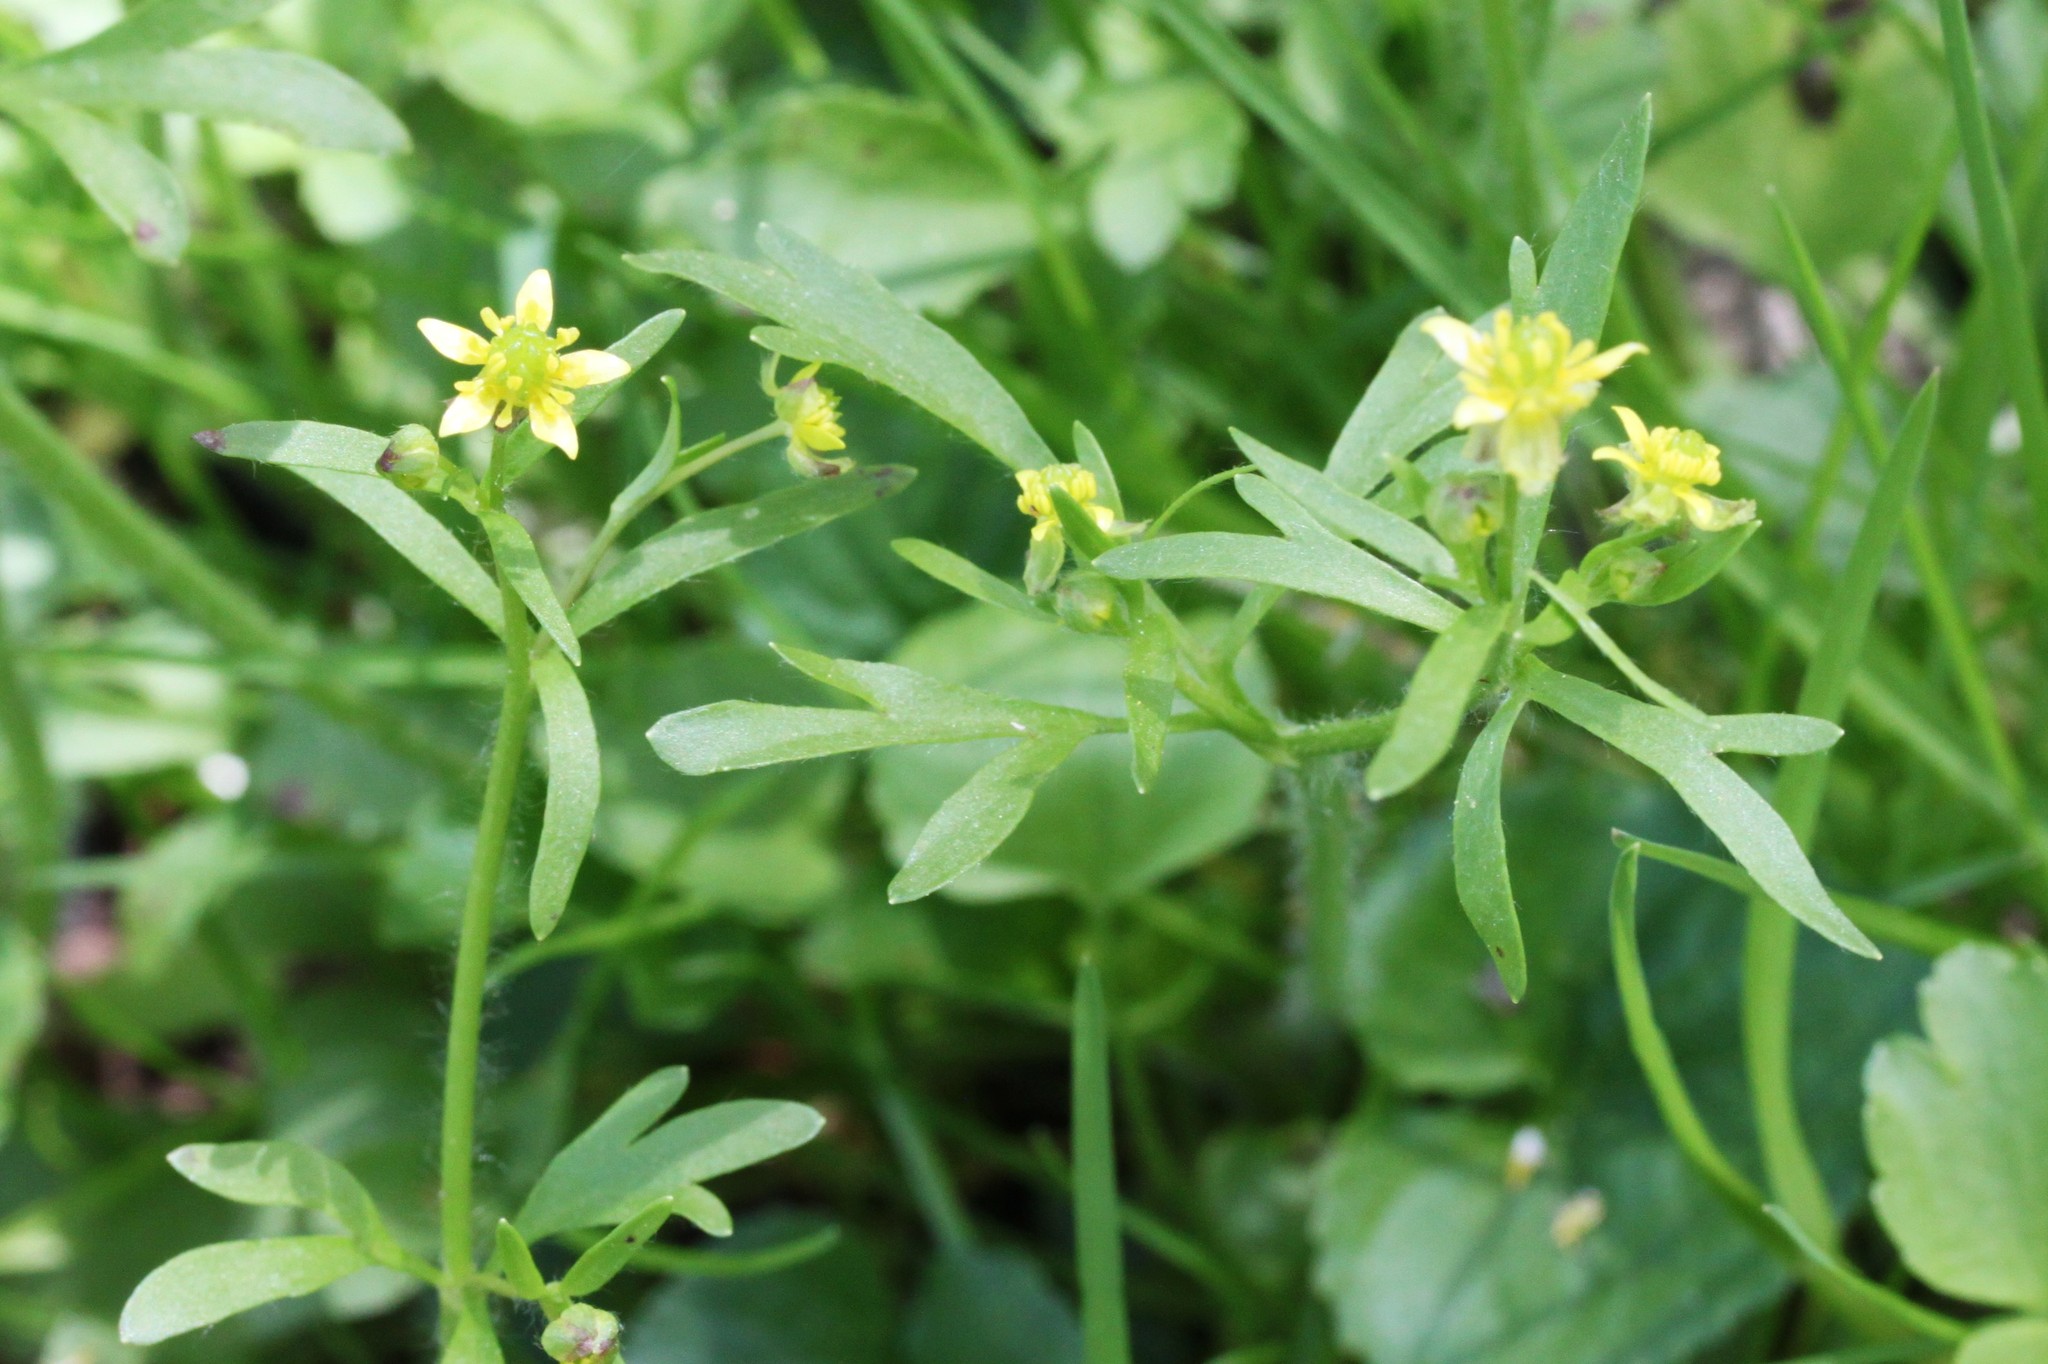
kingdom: Plantae
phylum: Tracheophyta
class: Magnoliopsida
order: Ranunculales
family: Ranunculaceae
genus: Ranunculus
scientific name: Ranunculus micranthus
